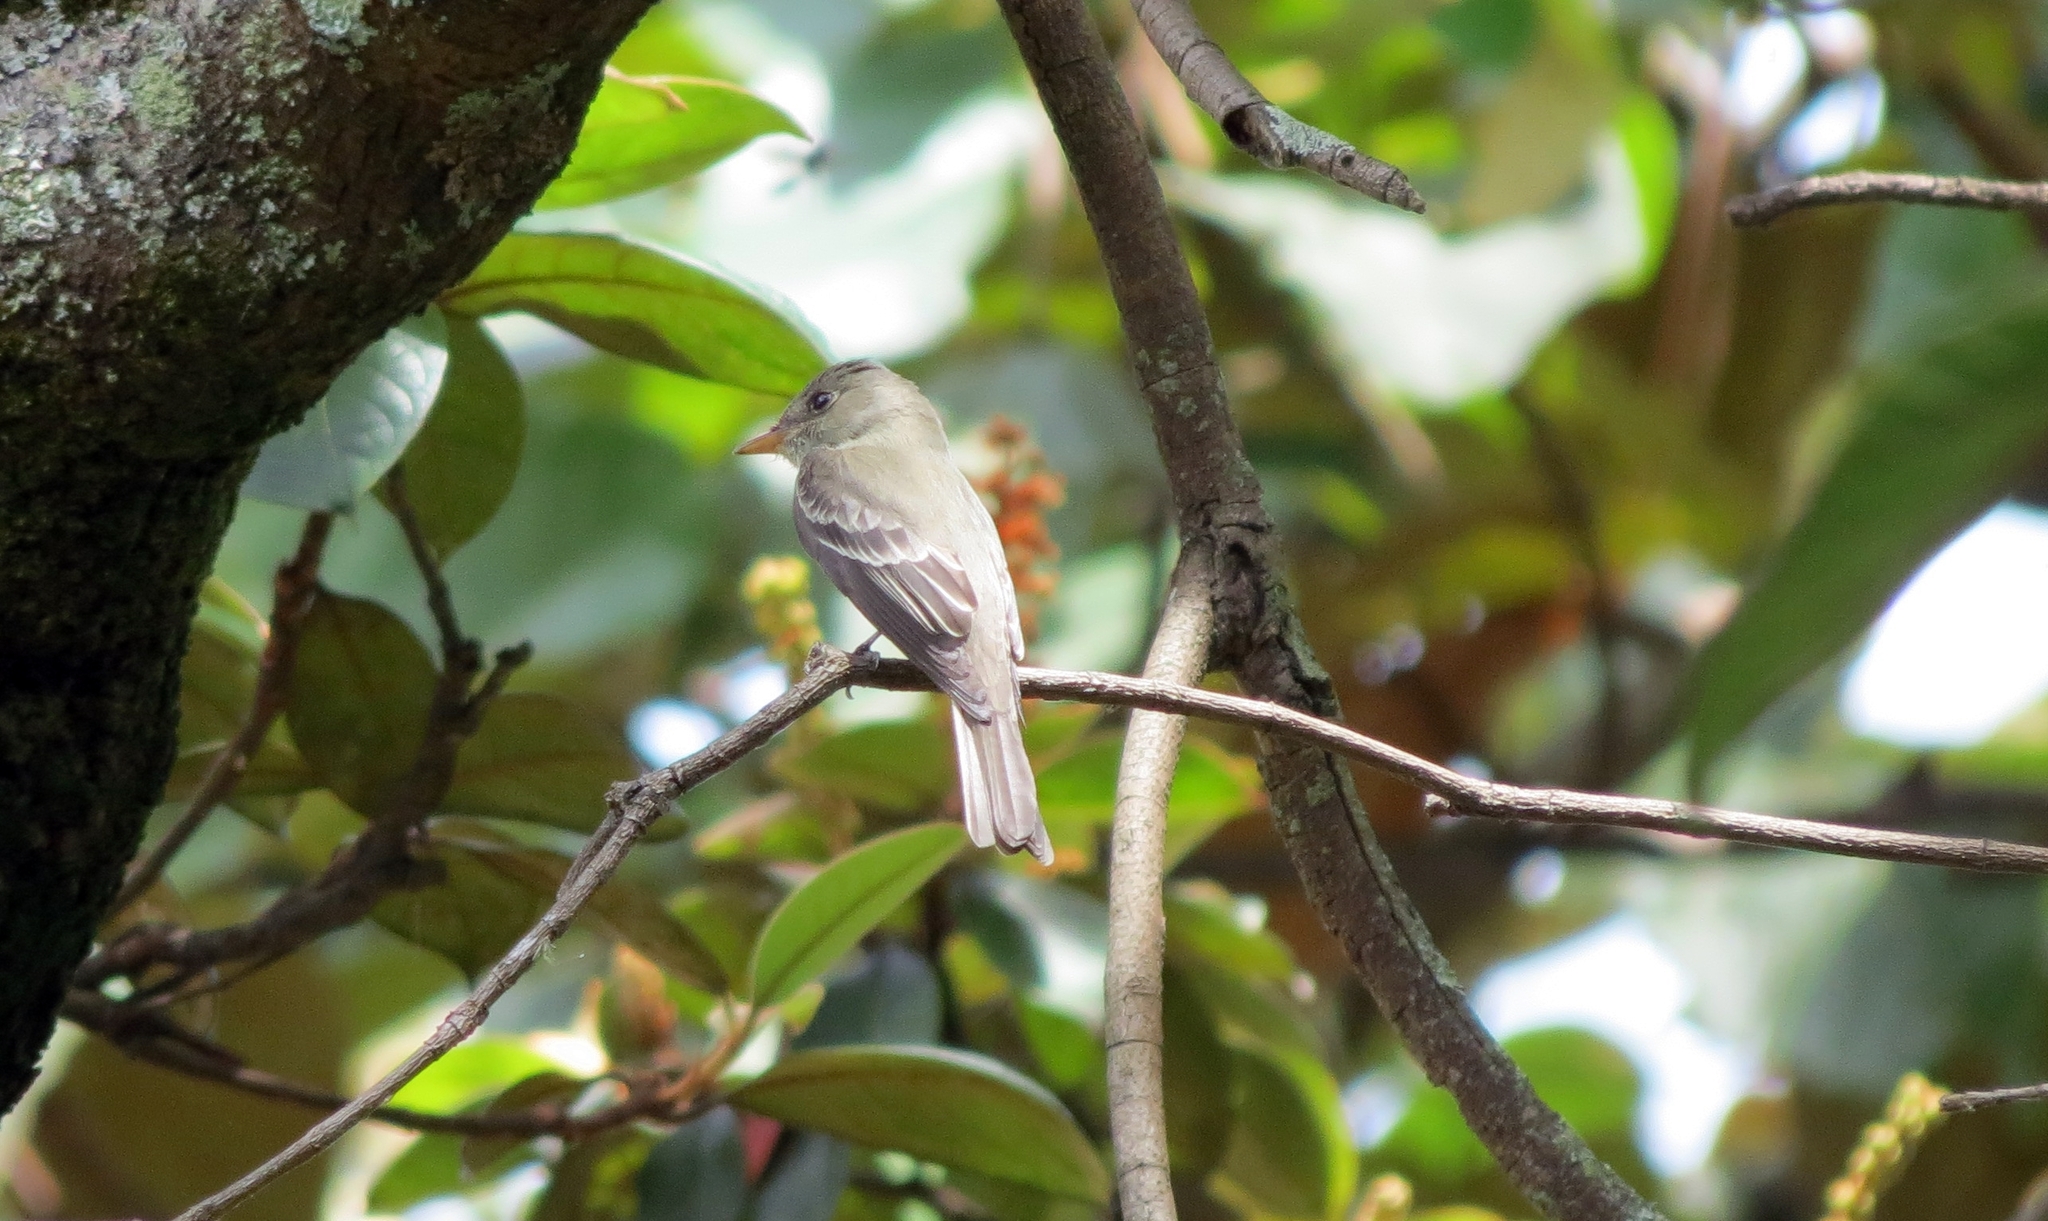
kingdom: Animalia
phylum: Chordata
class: Aves
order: Passeriformes
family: Tyrannidae
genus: Contopus
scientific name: Contopus virens
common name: Eastern wood-pewee
